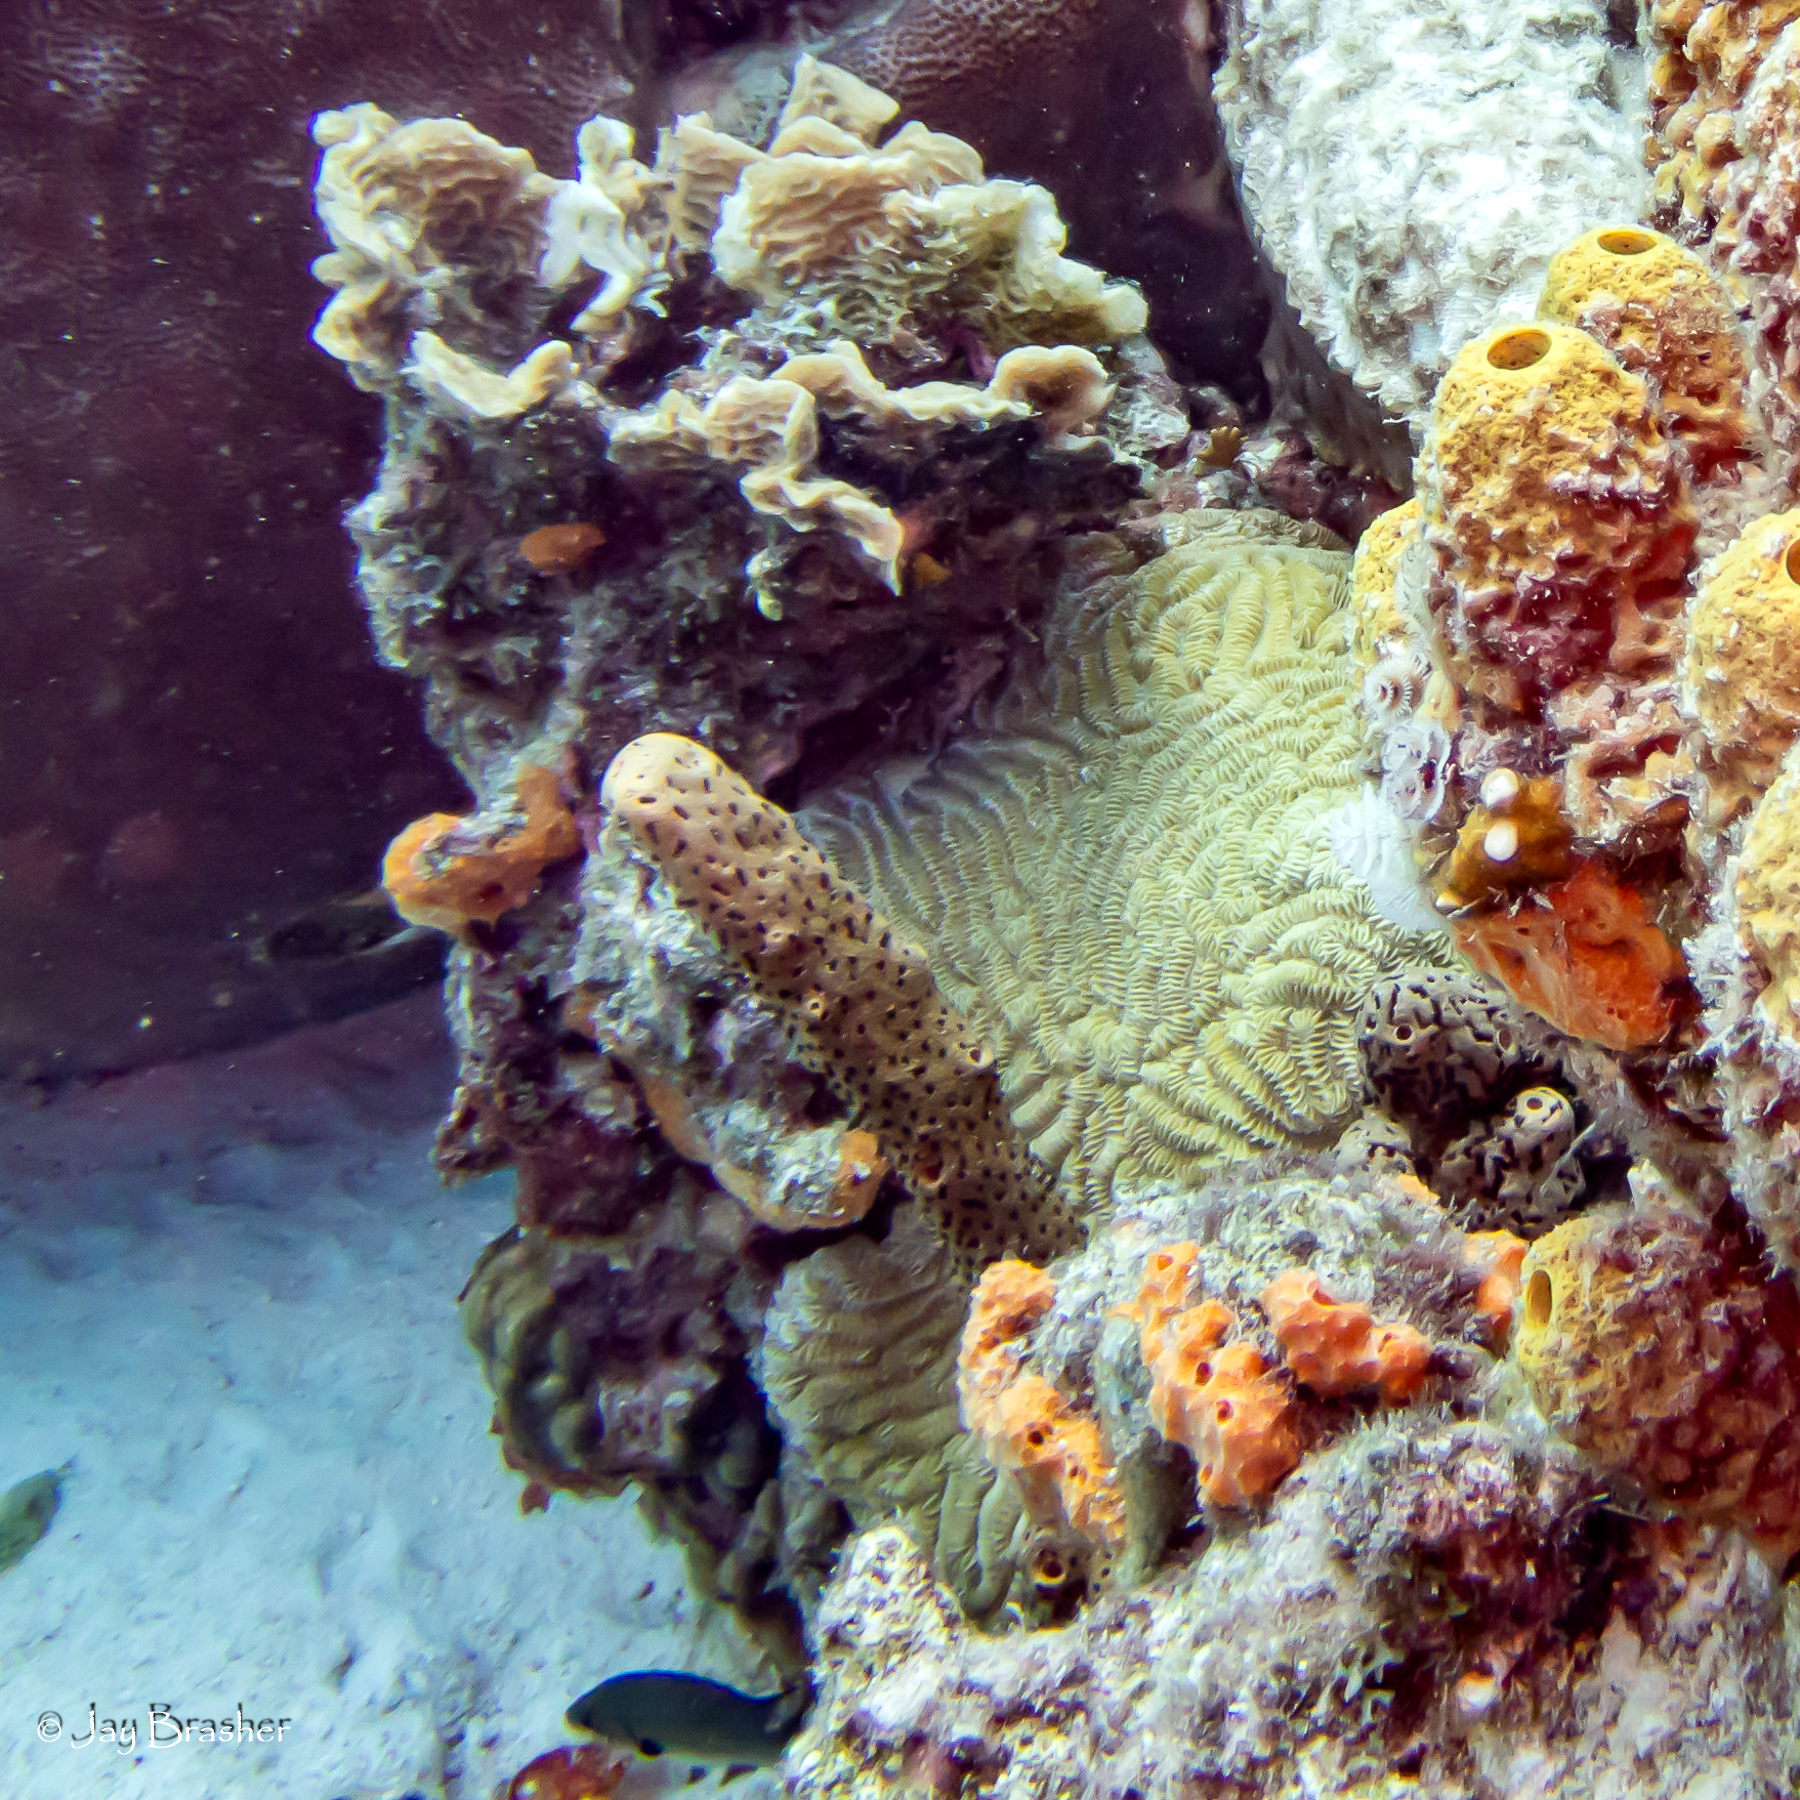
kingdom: Animalia
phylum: Porifera
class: Demospongiae
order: Agelasida
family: Agelasidae
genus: Agelas
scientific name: Agelas conifera
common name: Brown tube sponge
